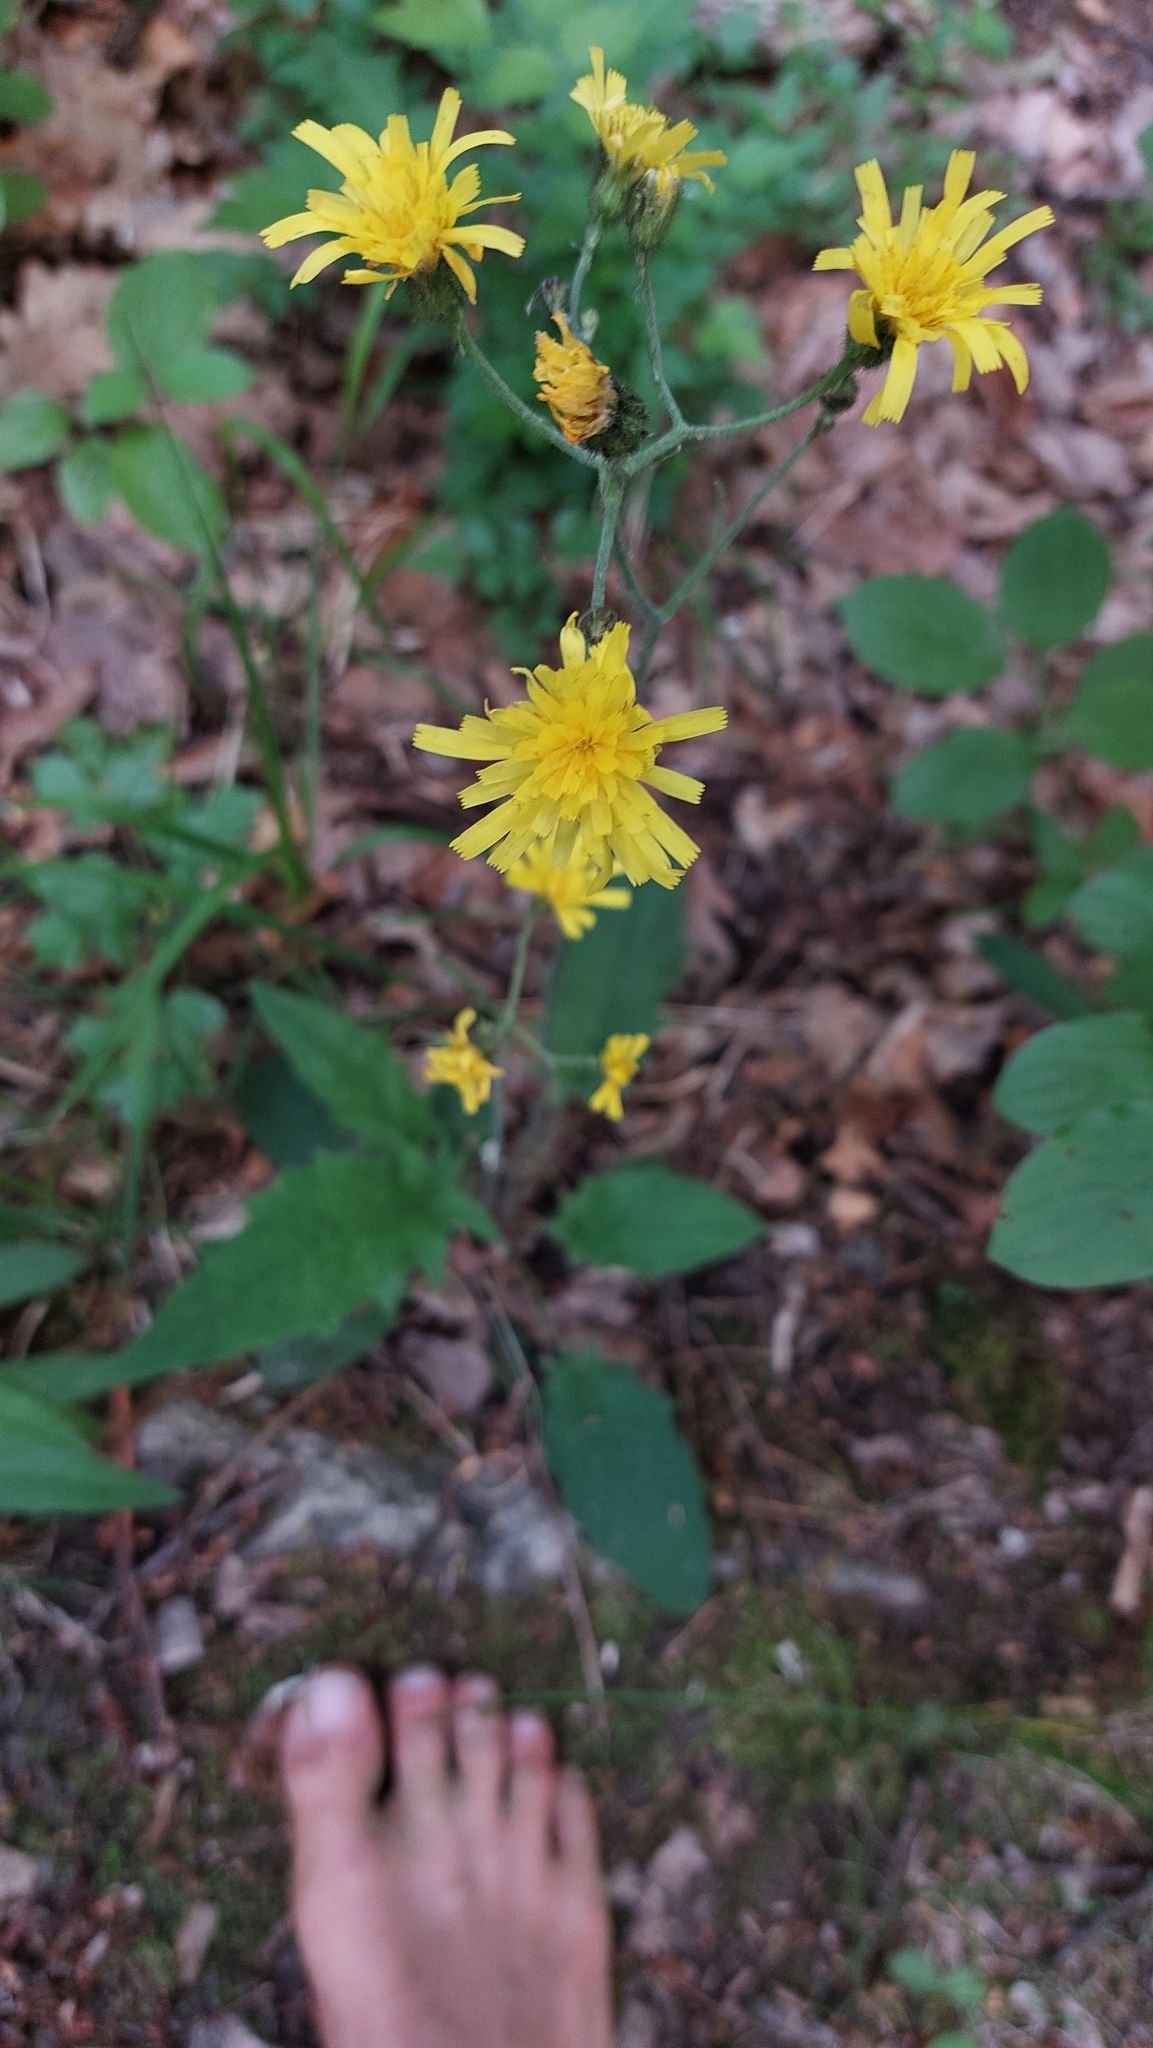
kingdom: Plantae
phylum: Tracheophyta
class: Magnoliopsida
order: Asterales
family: Asteraceae
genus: Hieracium
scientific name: Hieracium murorum
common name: Wall hawkweed
